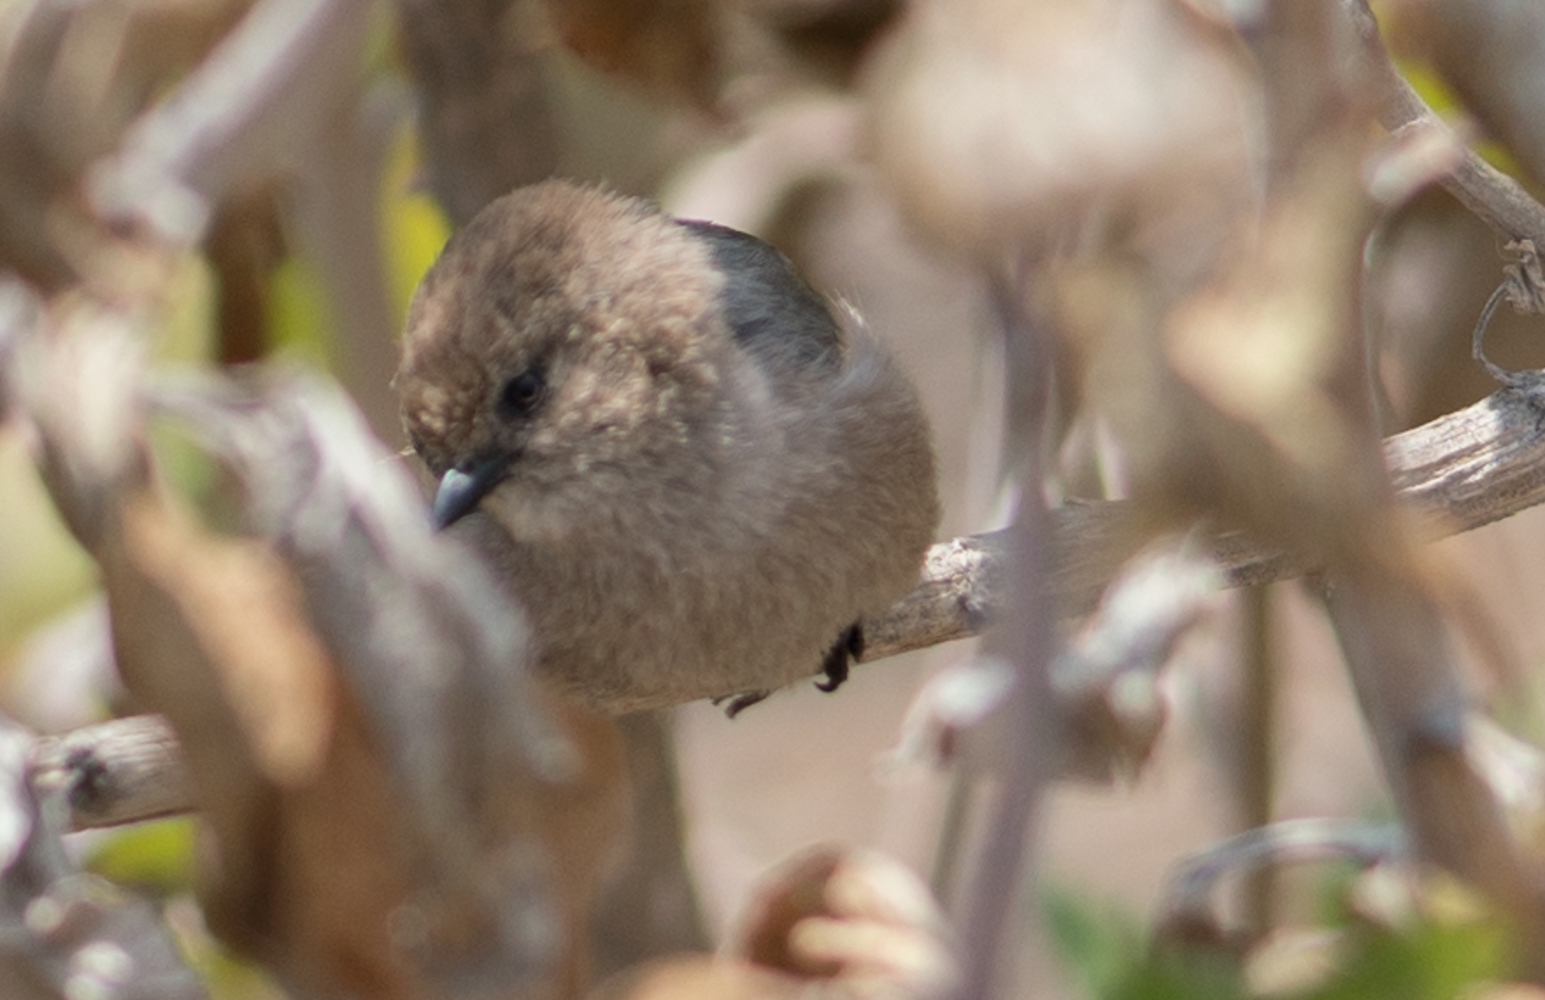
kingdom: Animalia
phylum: Chordata
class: Aves
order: Passeriformes
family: Aegithalidae
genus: Psaltriparus
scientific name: Psaltriparus minimus
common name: American bushtit
